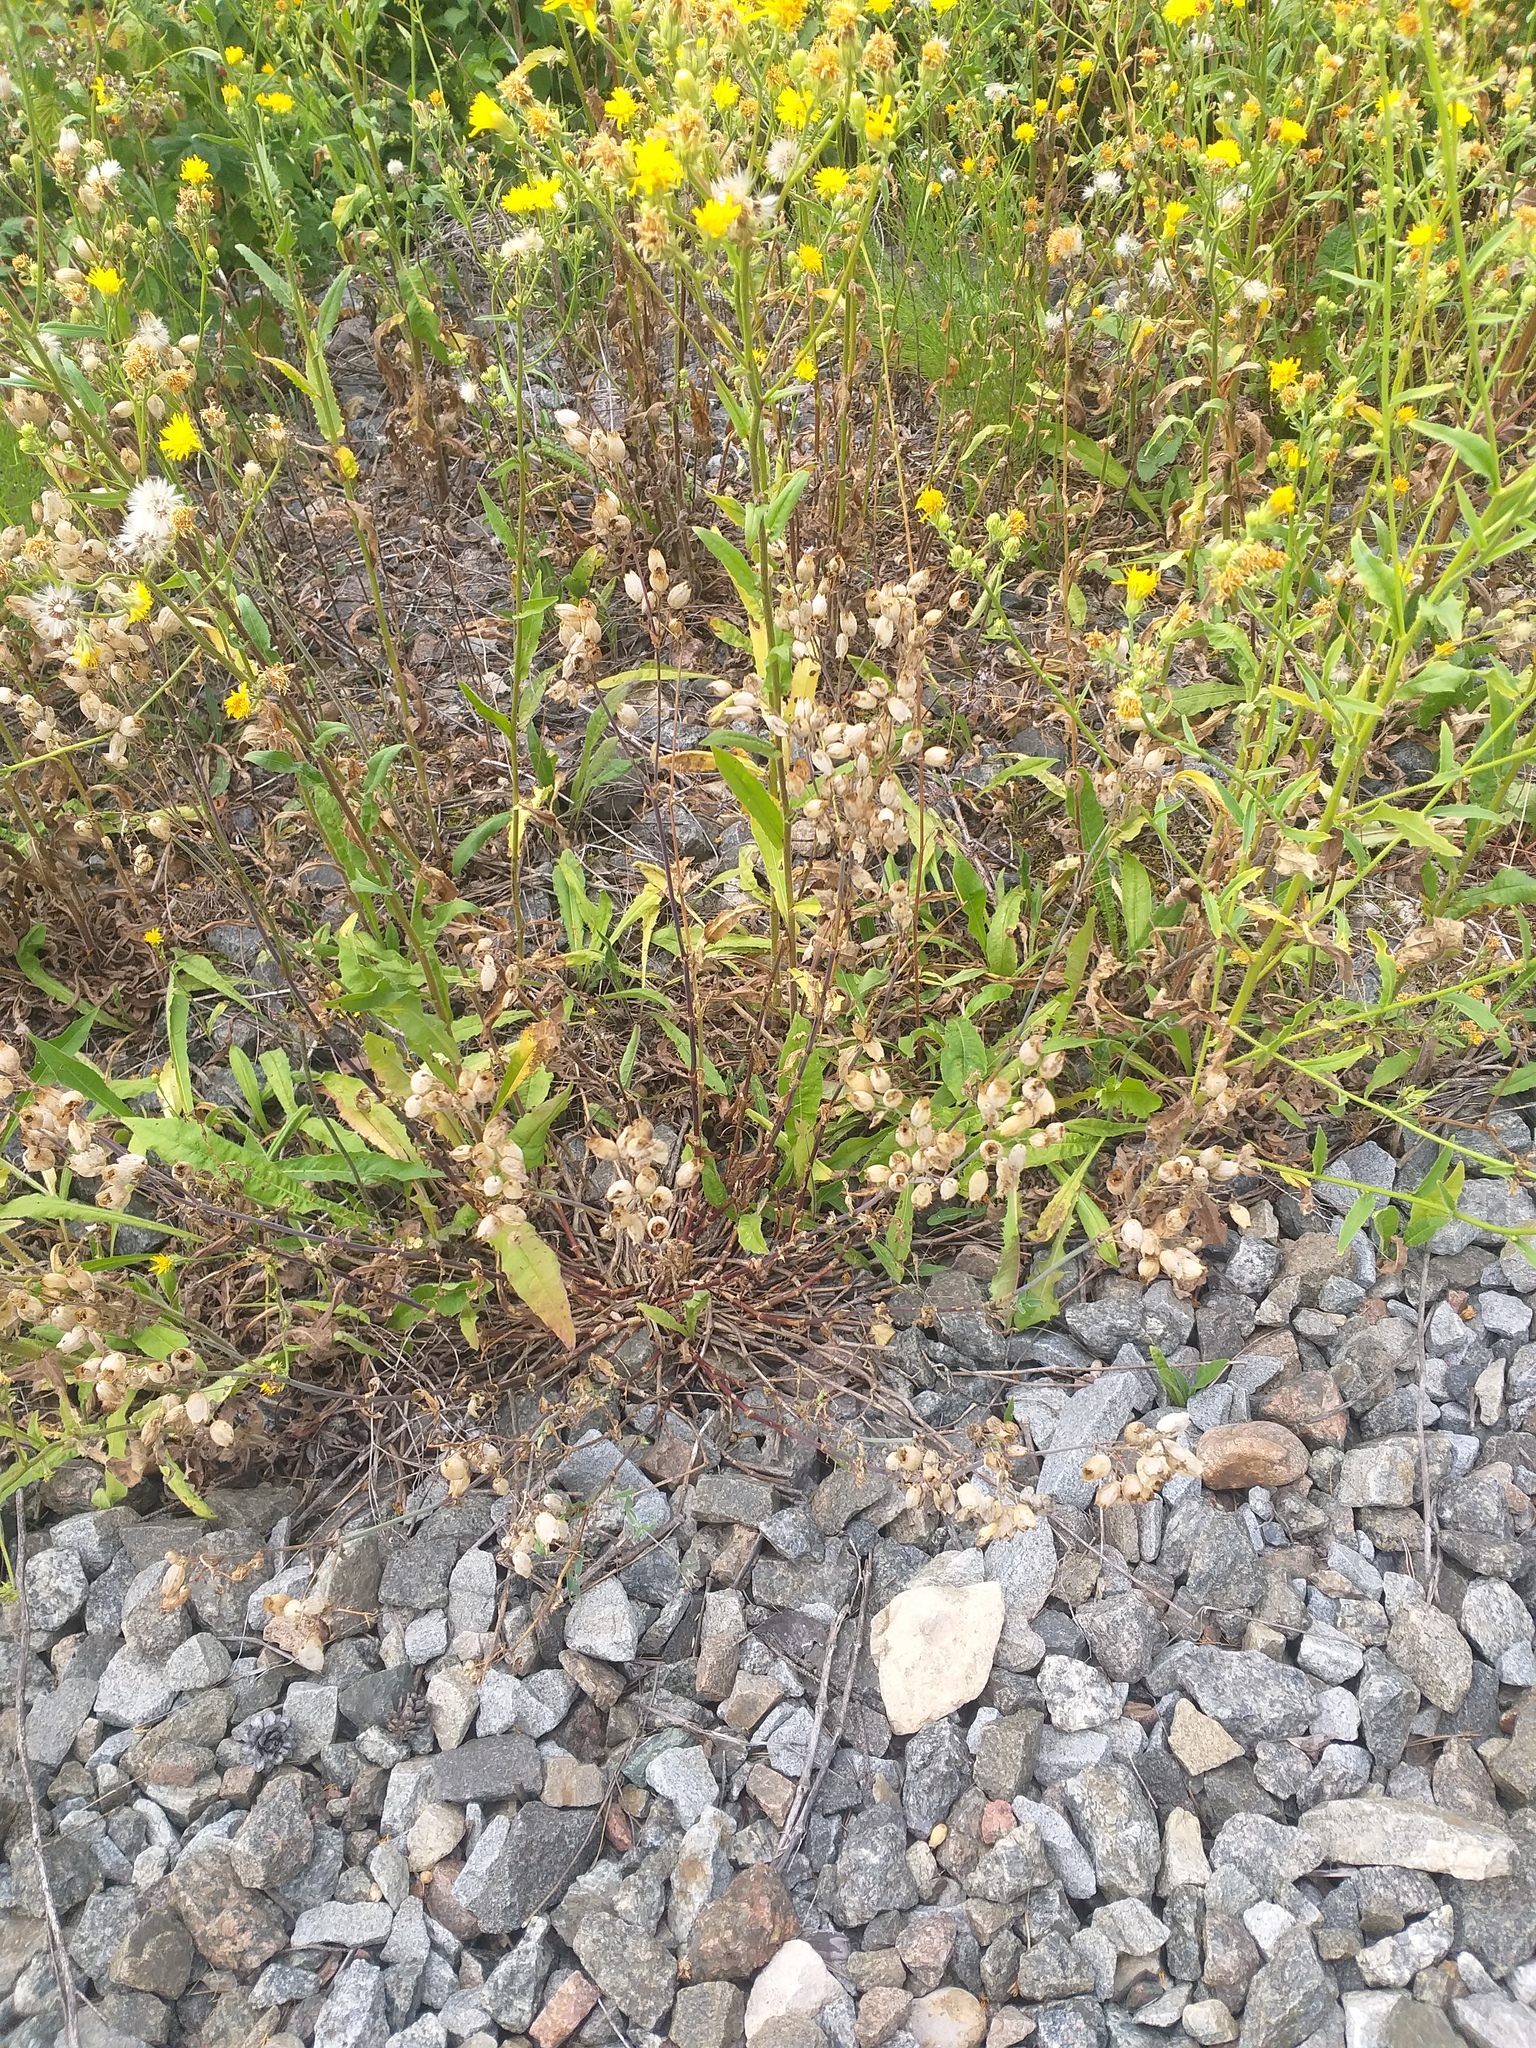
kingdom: Plantae
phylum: Tracheophyta
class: Magnoliopsida
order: Caryophyllales
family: Caryophyllaceae
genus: Silene
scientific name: Silene vulgaris
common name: Bladder campion
